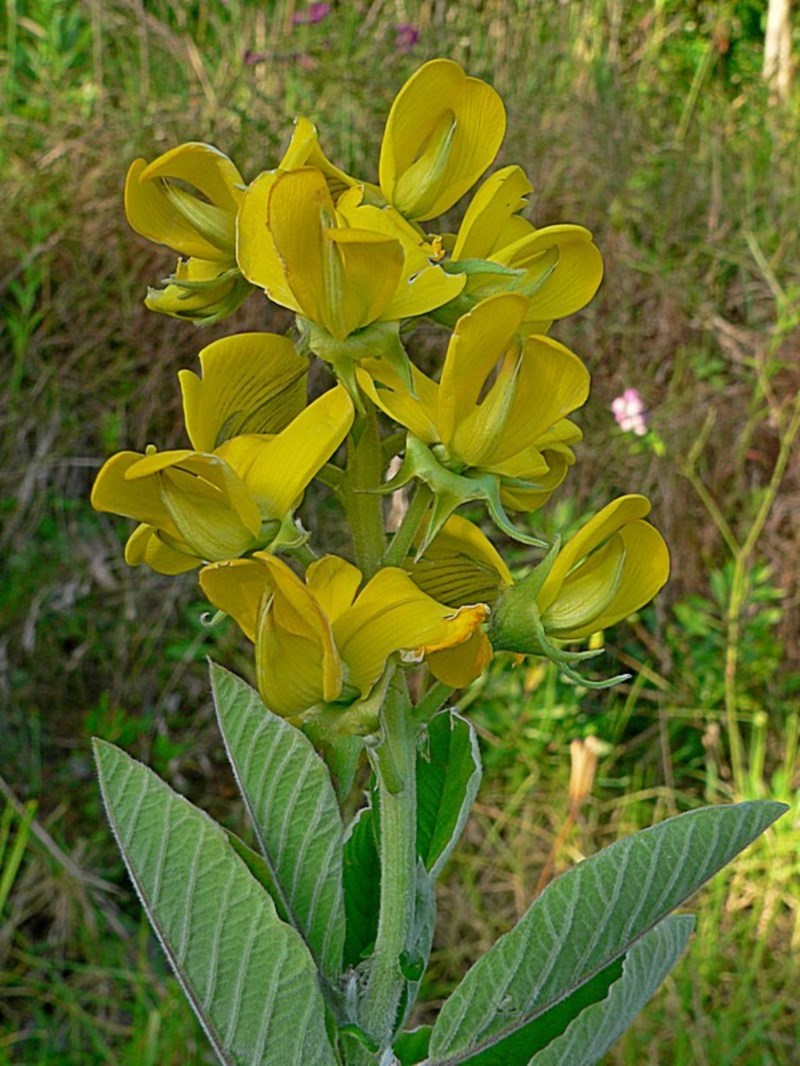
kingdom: Plantae
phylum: Tracheophyta
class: Magnoliopsida
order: Fabales
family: Fabaceae
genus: Crotalaria
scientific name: Crotalaria beddomeana
